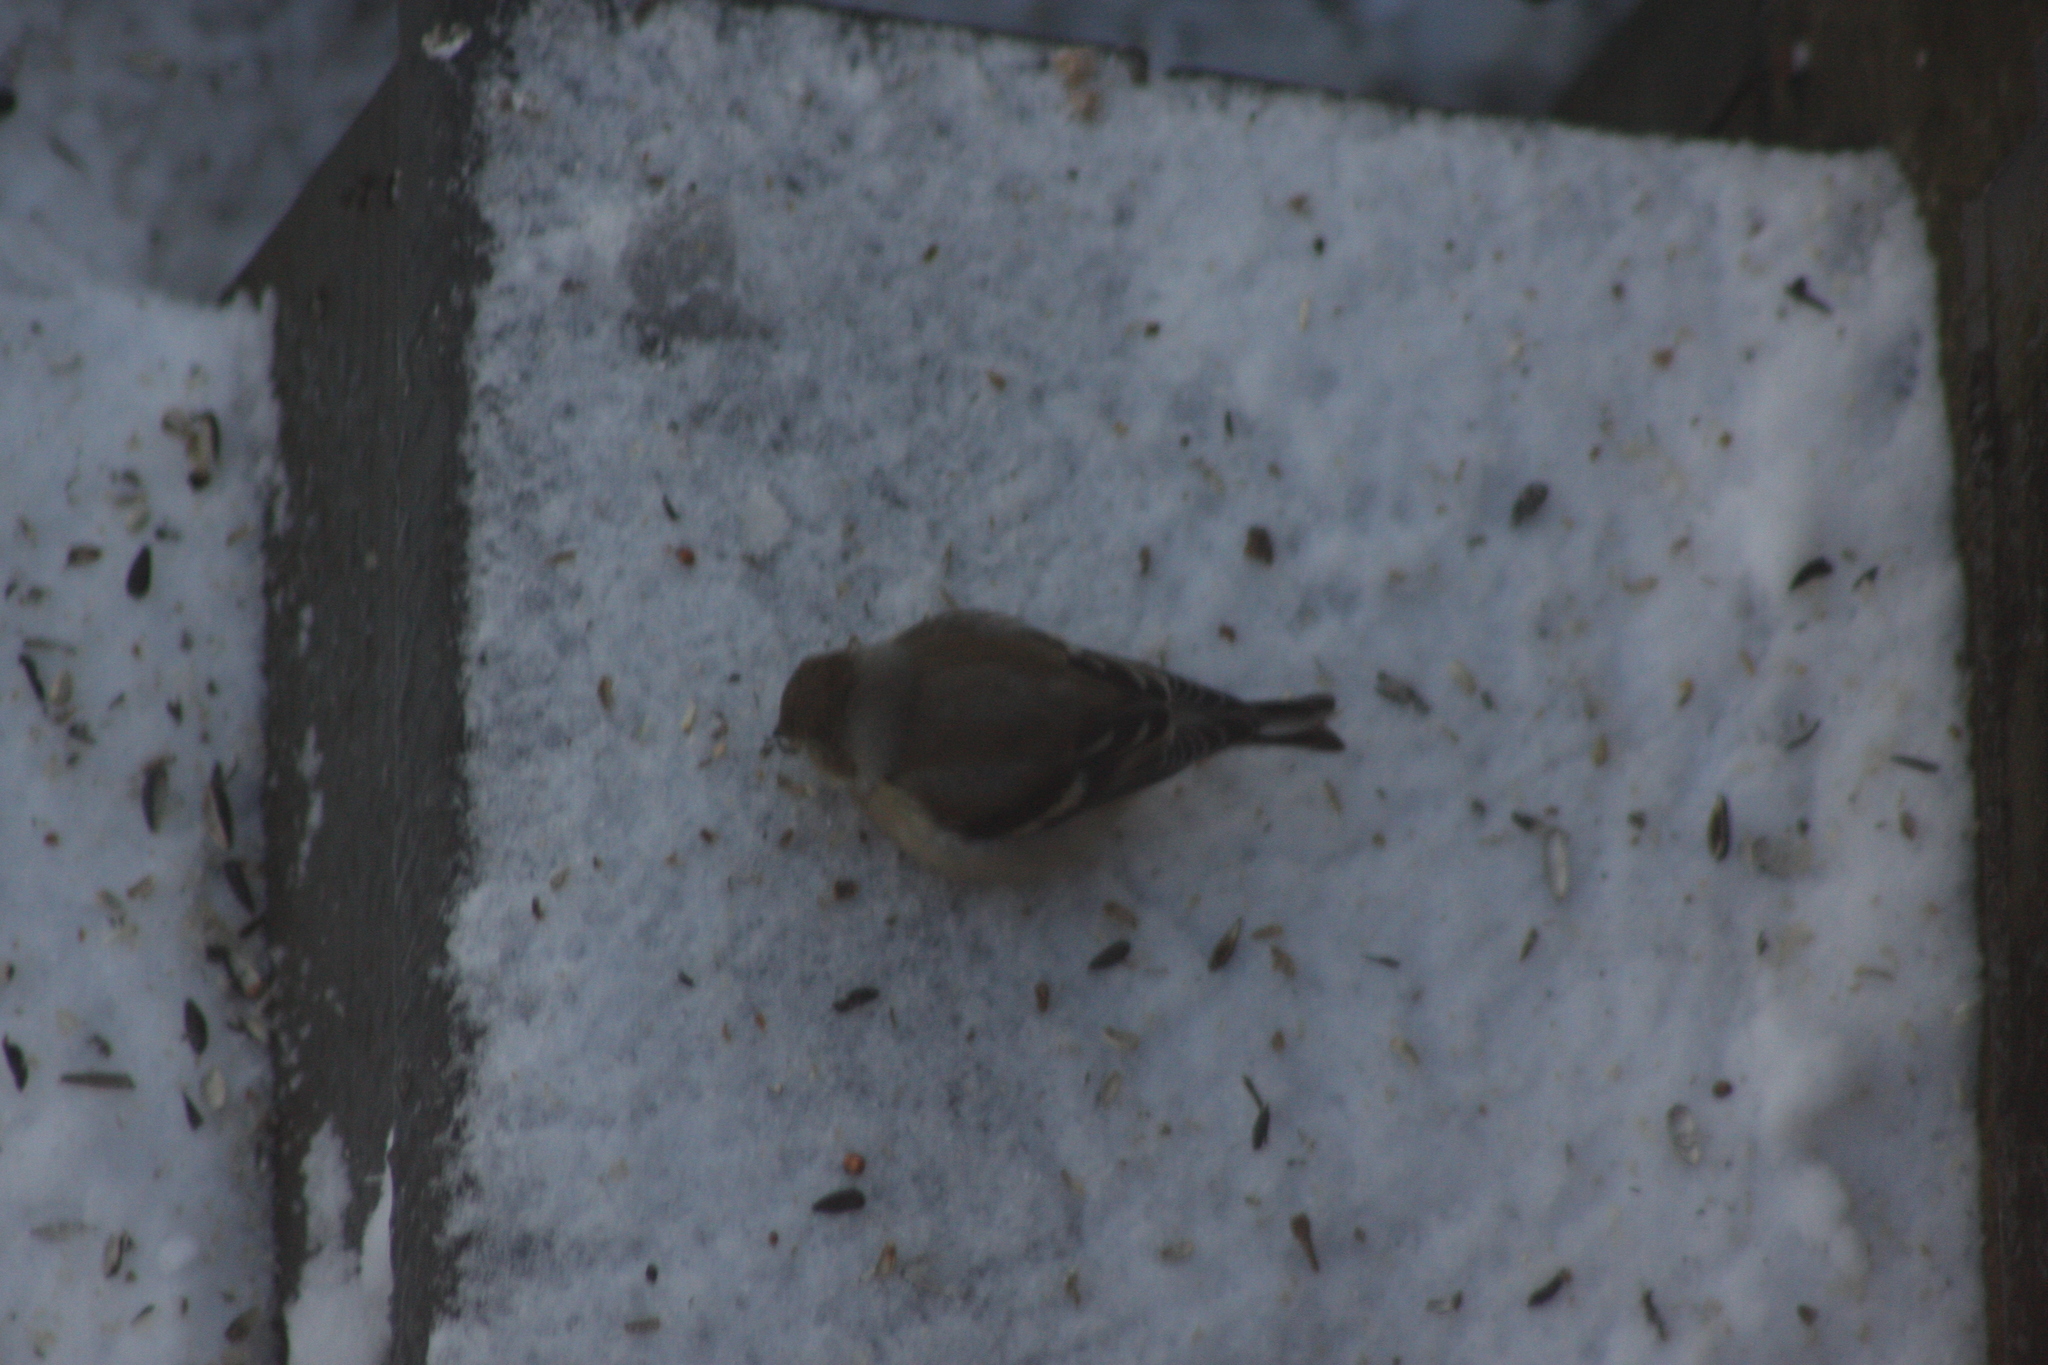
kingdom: Animalia
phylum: Chordata
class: Aves
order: Passeriformes
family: Fringillidae
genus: Spinus
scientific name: Spinus tristis
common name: American goldfinch
